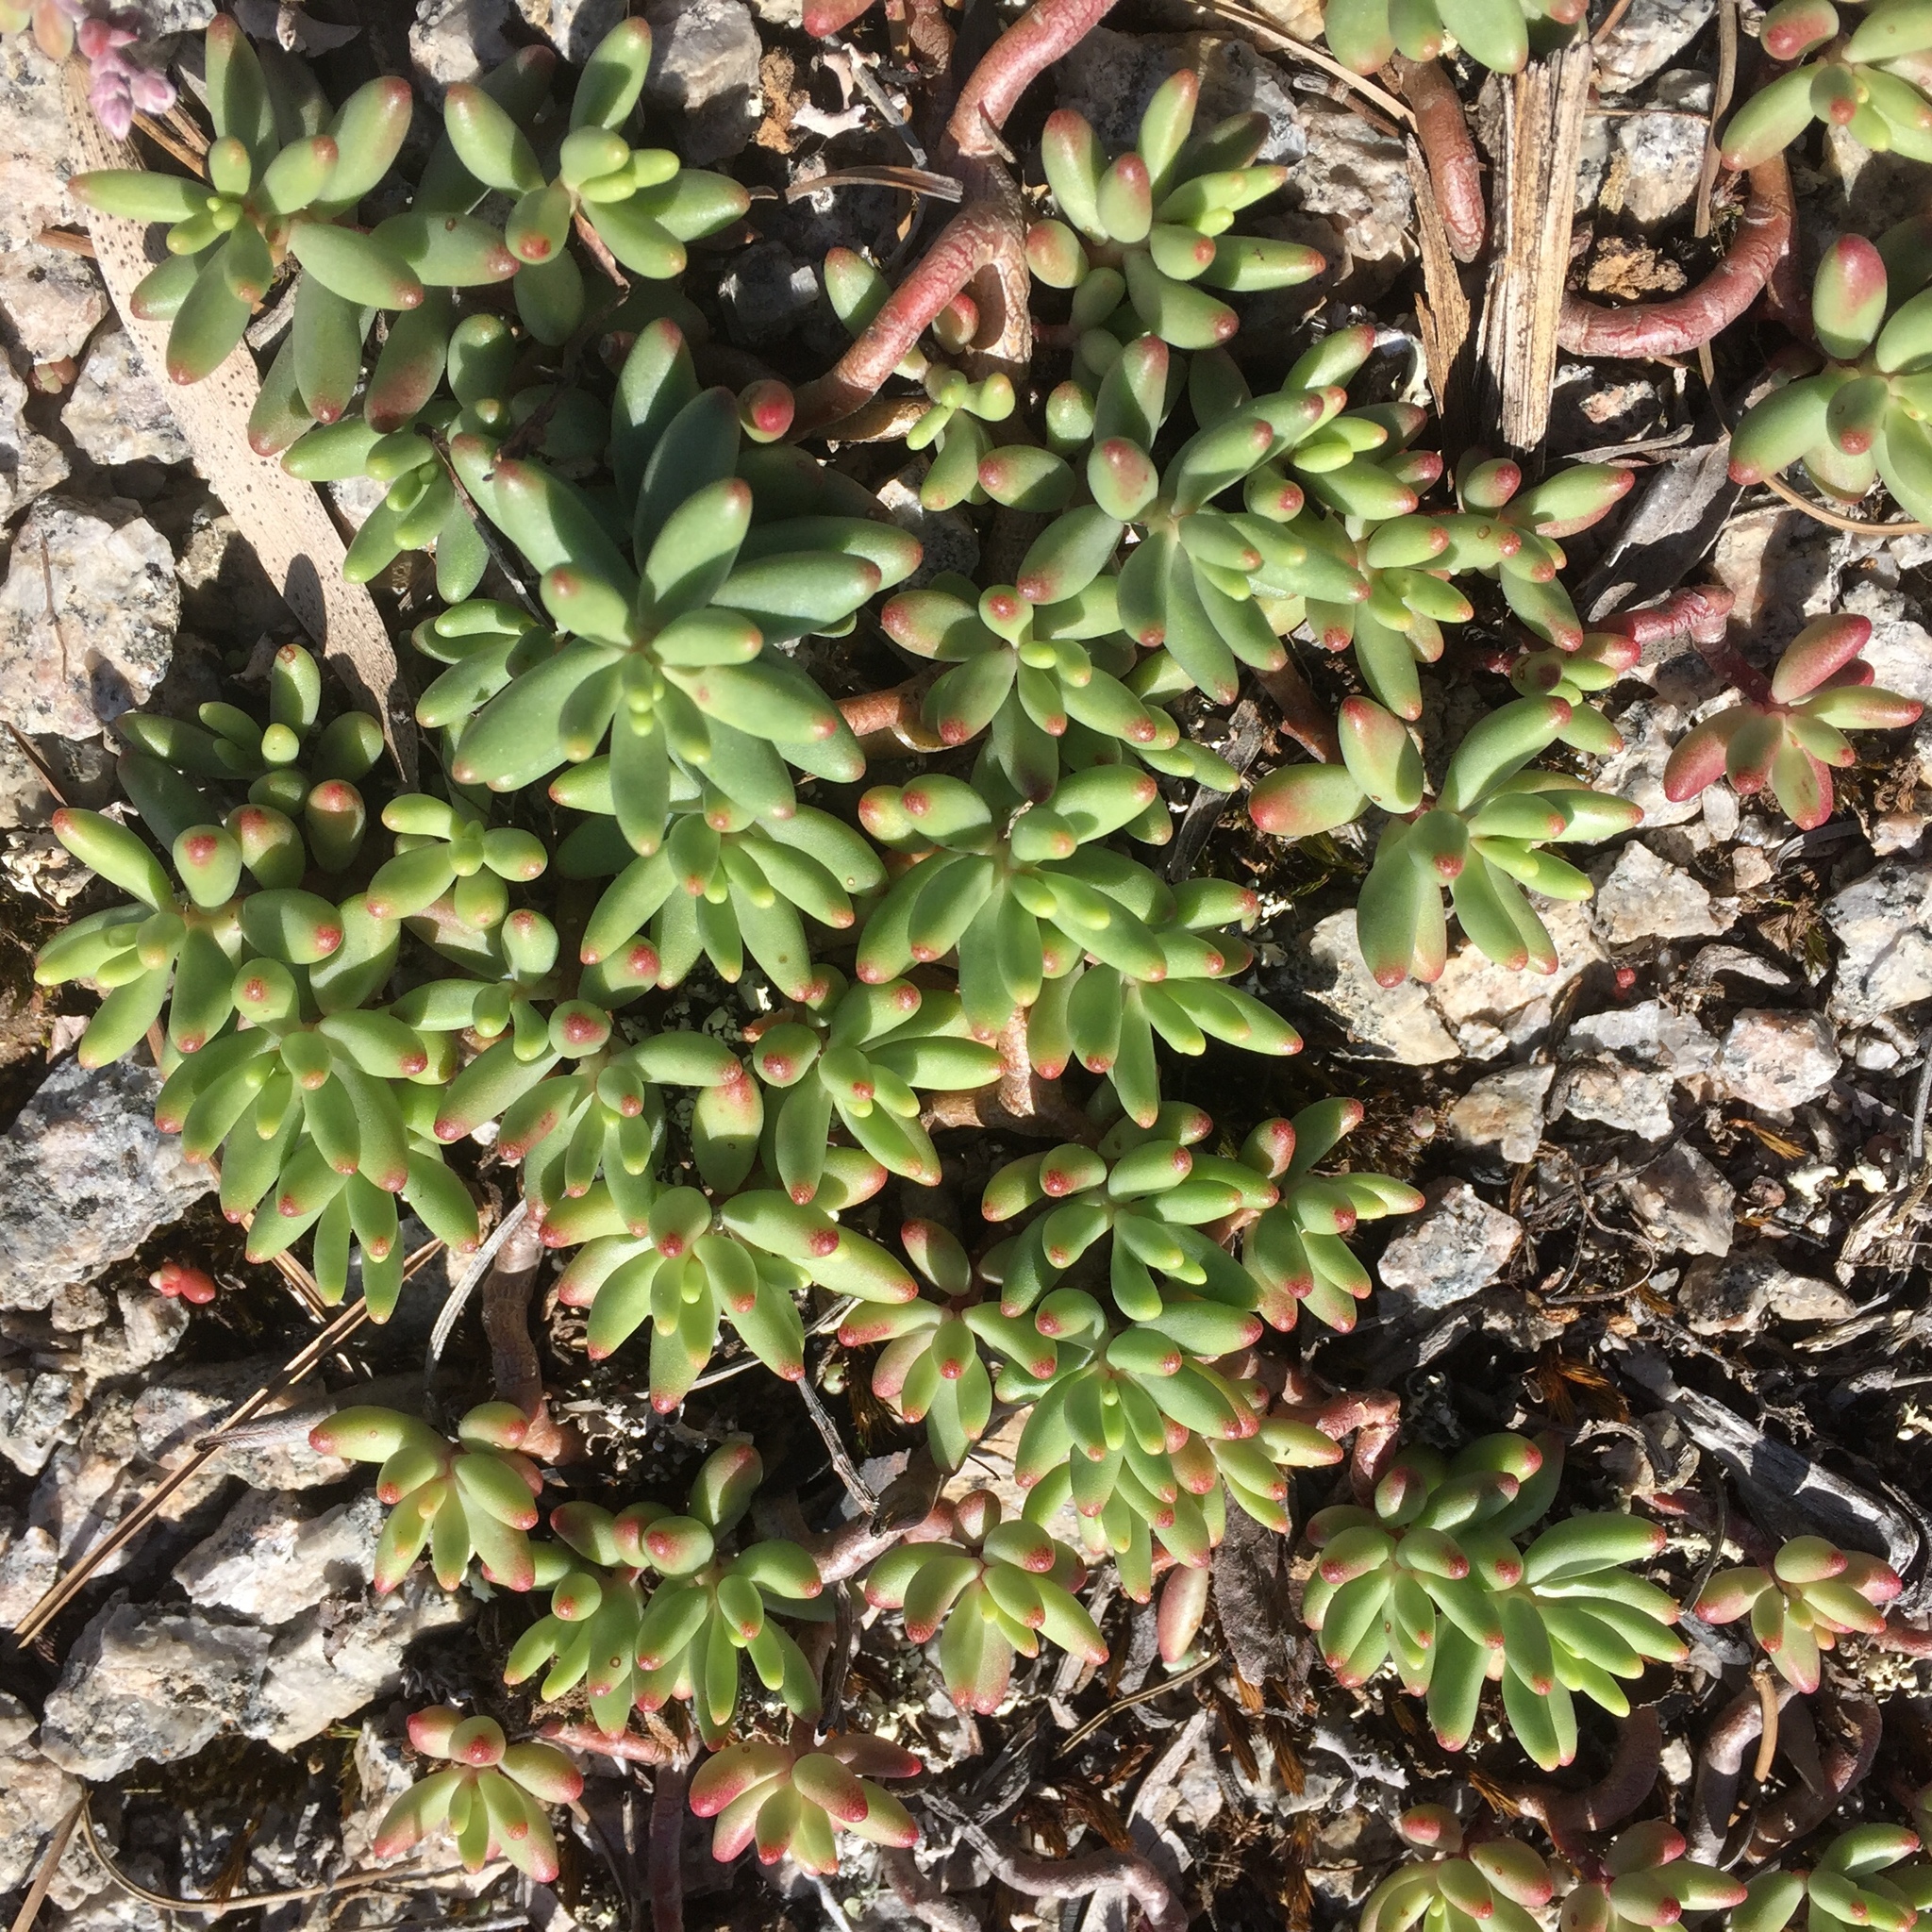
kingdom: Plantae
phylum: Tracheophyta
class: Magnoliopsida
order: Saxifragales
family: Crassulaceae
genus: Sedum
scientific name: Sedum album
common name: White stonecrop
